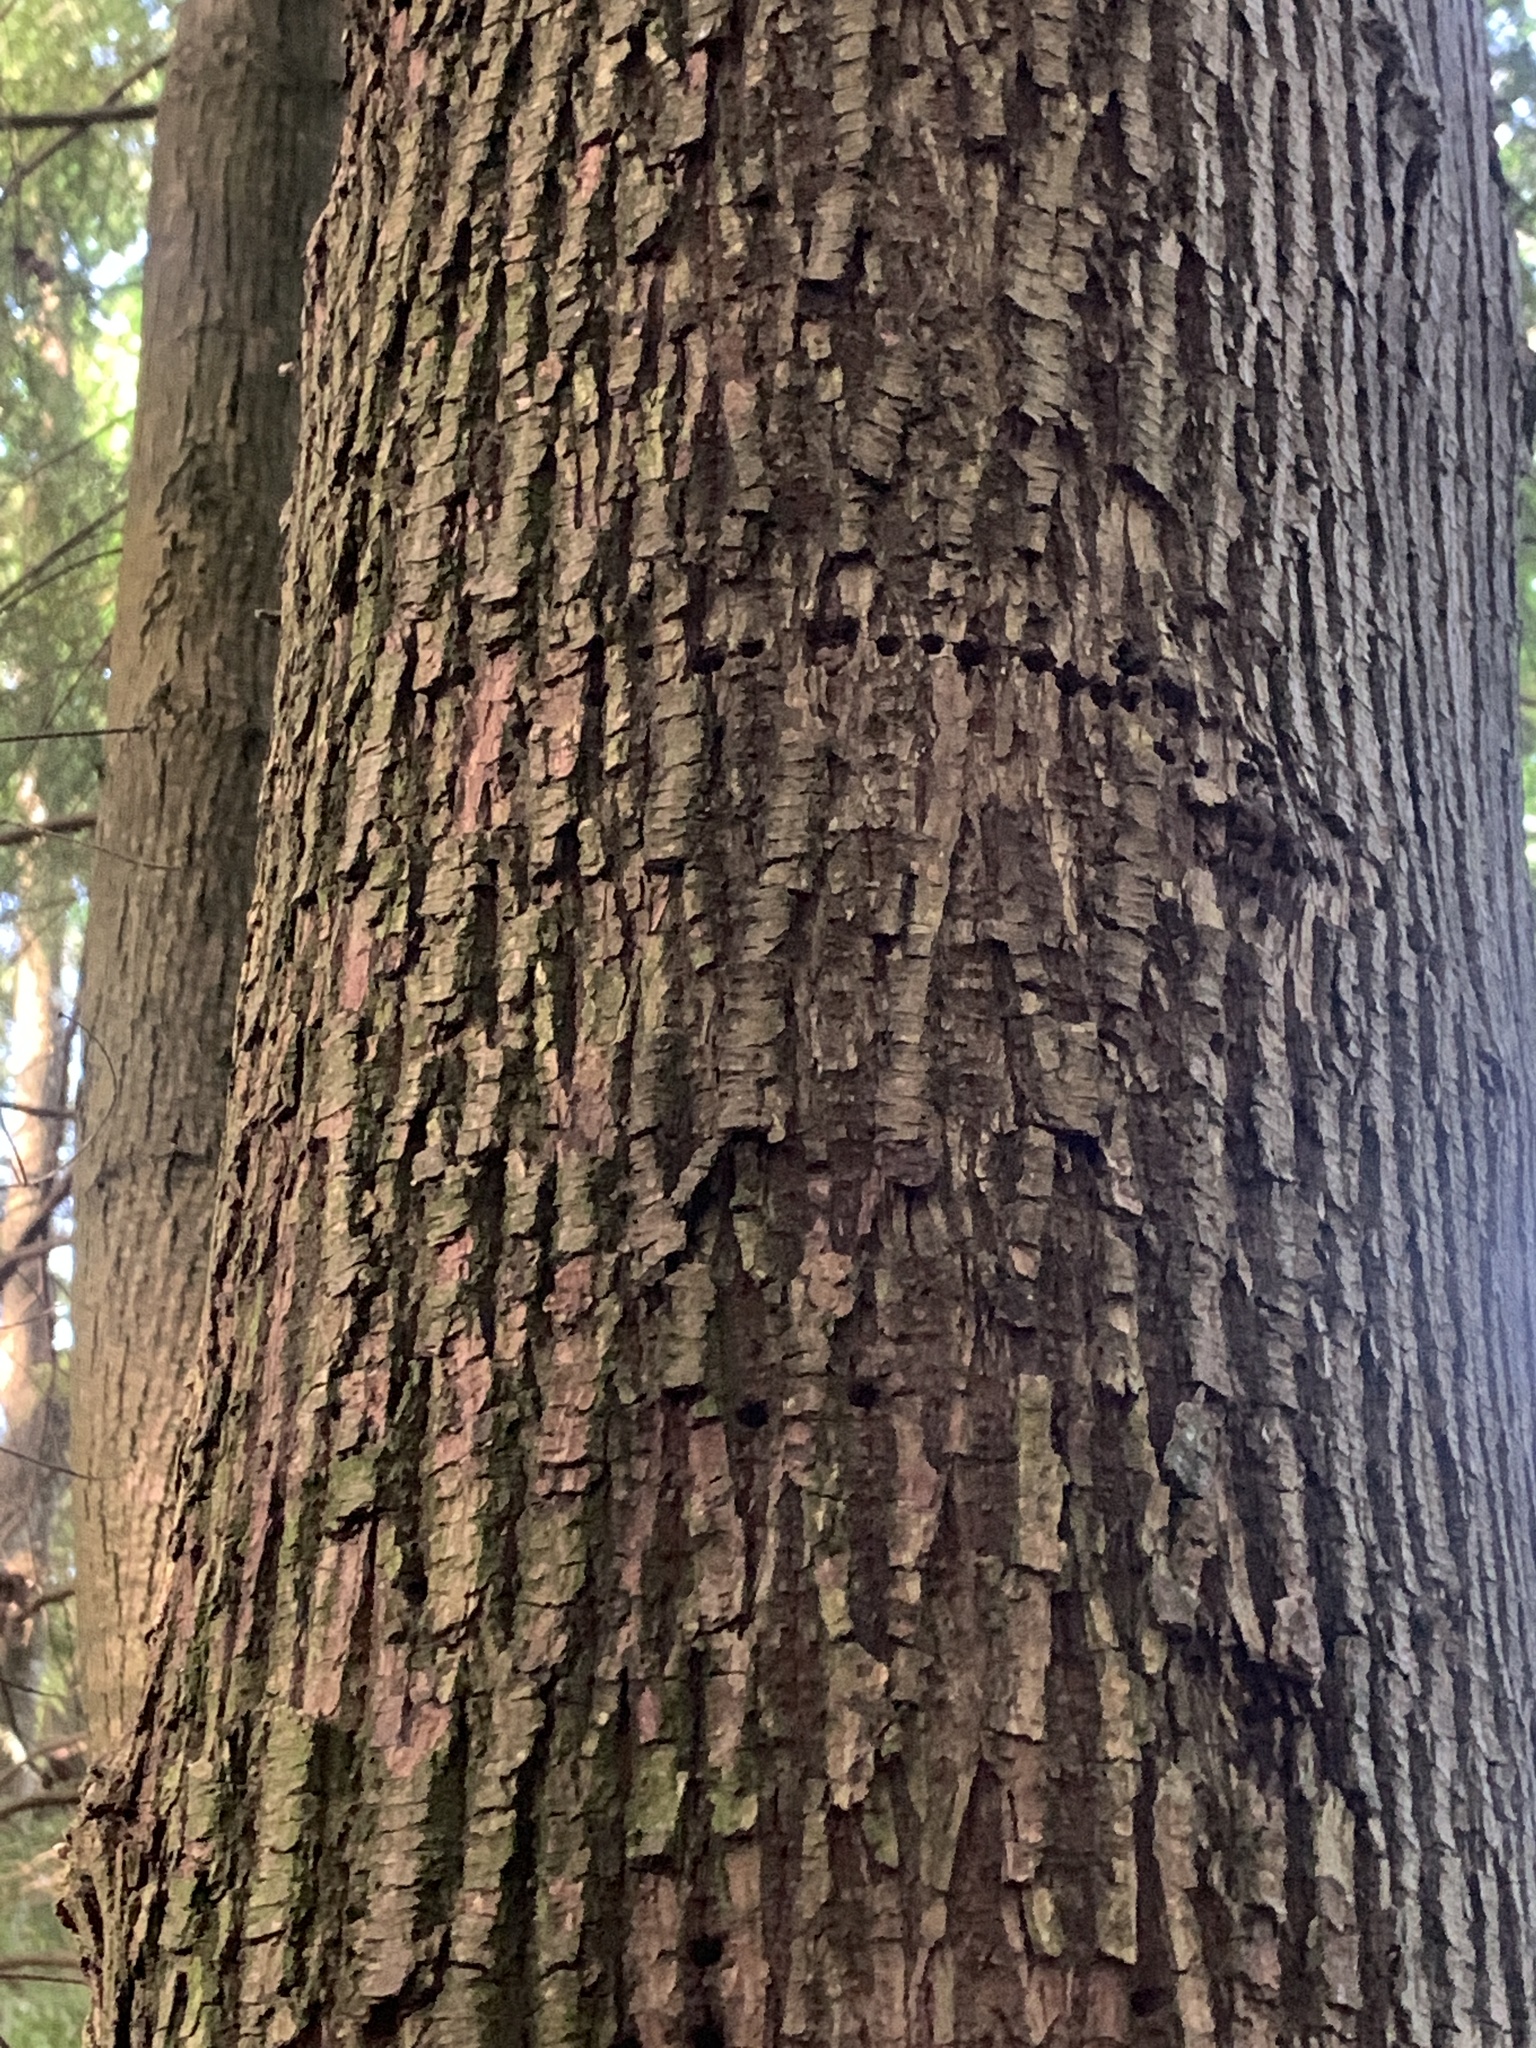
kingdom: Animalia
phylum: Chordata
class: Aves
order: Piciformes
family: Picidae
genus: Sphyrapicus
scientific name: Sphyrapicus ruber
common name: Red-breasted sapsucker
